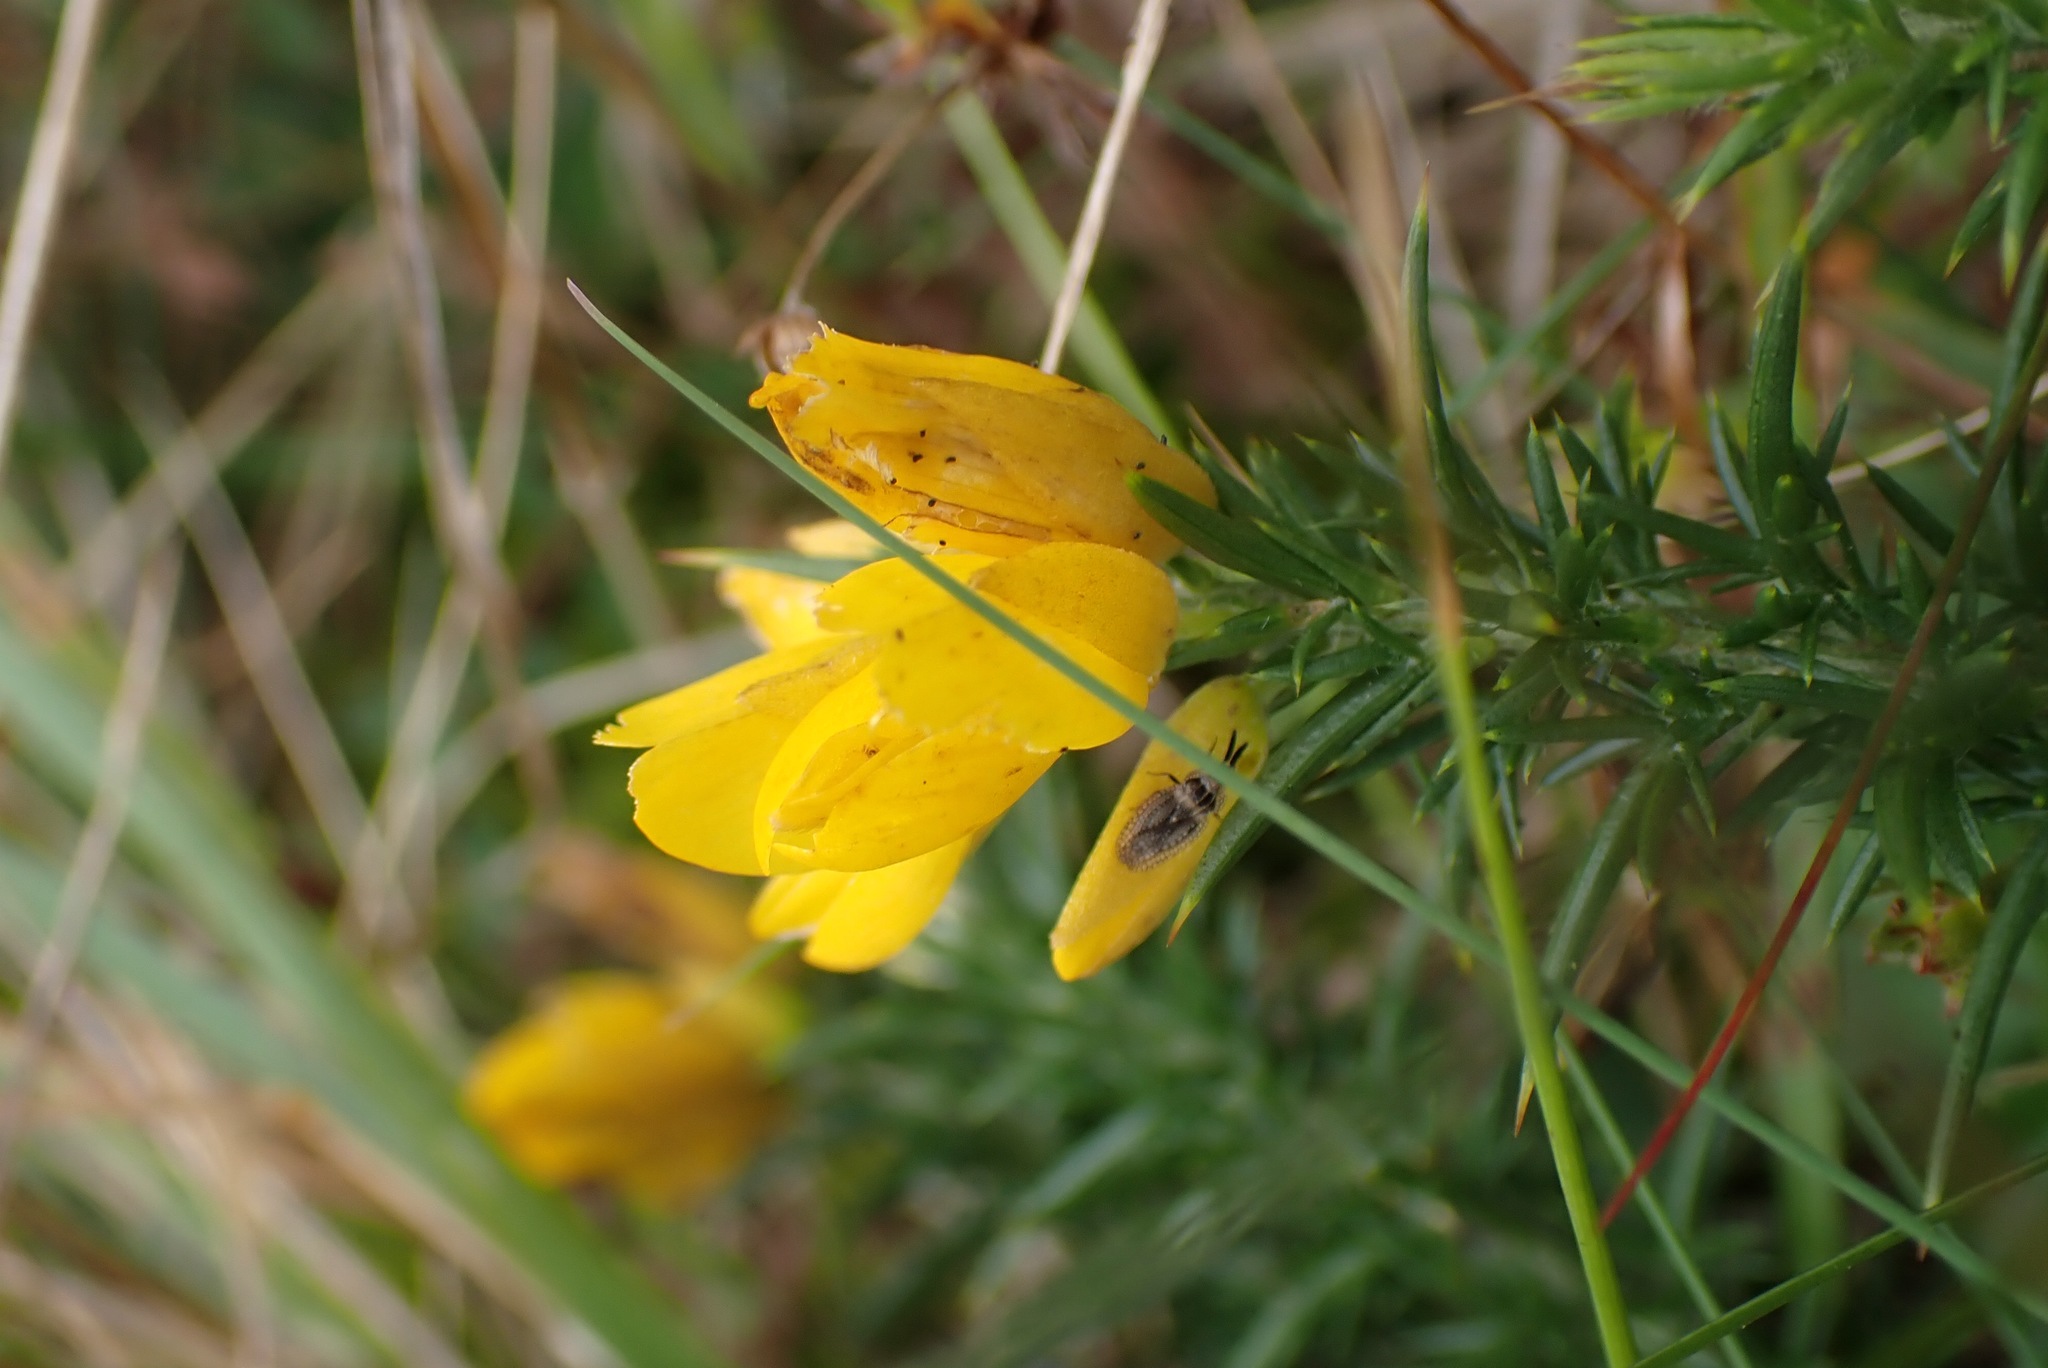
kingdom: Plantae
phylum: Tracheophyta
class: Magnoliopsida
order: Fabales
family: Fabaceae
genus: Ulex
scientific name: Ulex gallii
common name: Western gorse
